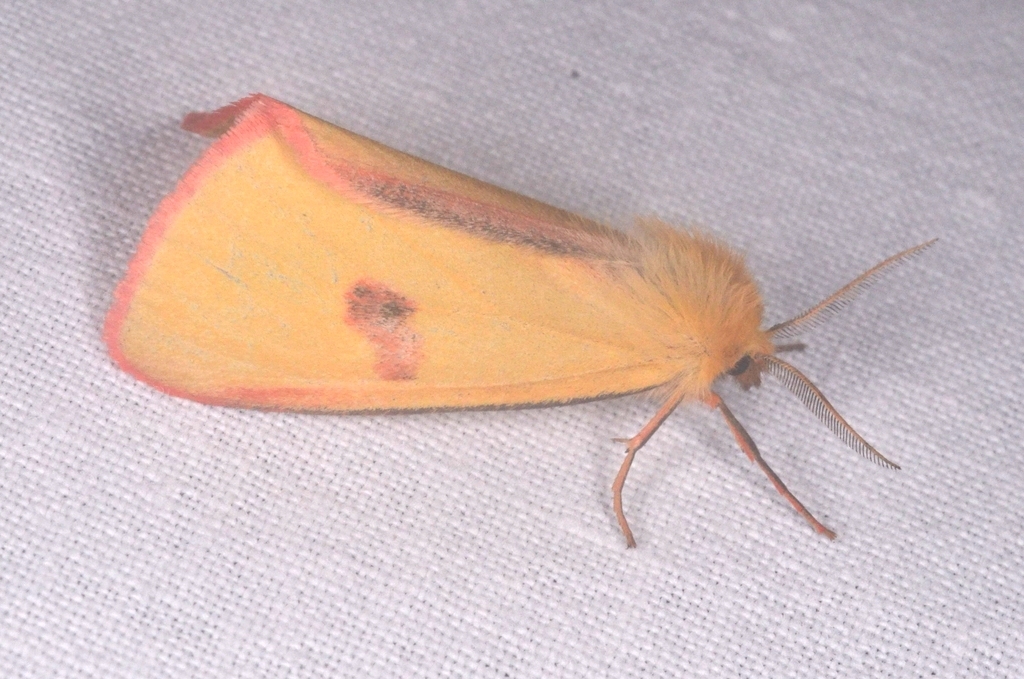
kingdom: Animalia
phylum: Arthropoda
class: Insecta
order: Lepidoptera
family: Erebidae
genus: Diacrisia
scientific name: Diacrisia sannio
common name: Clouded buff
